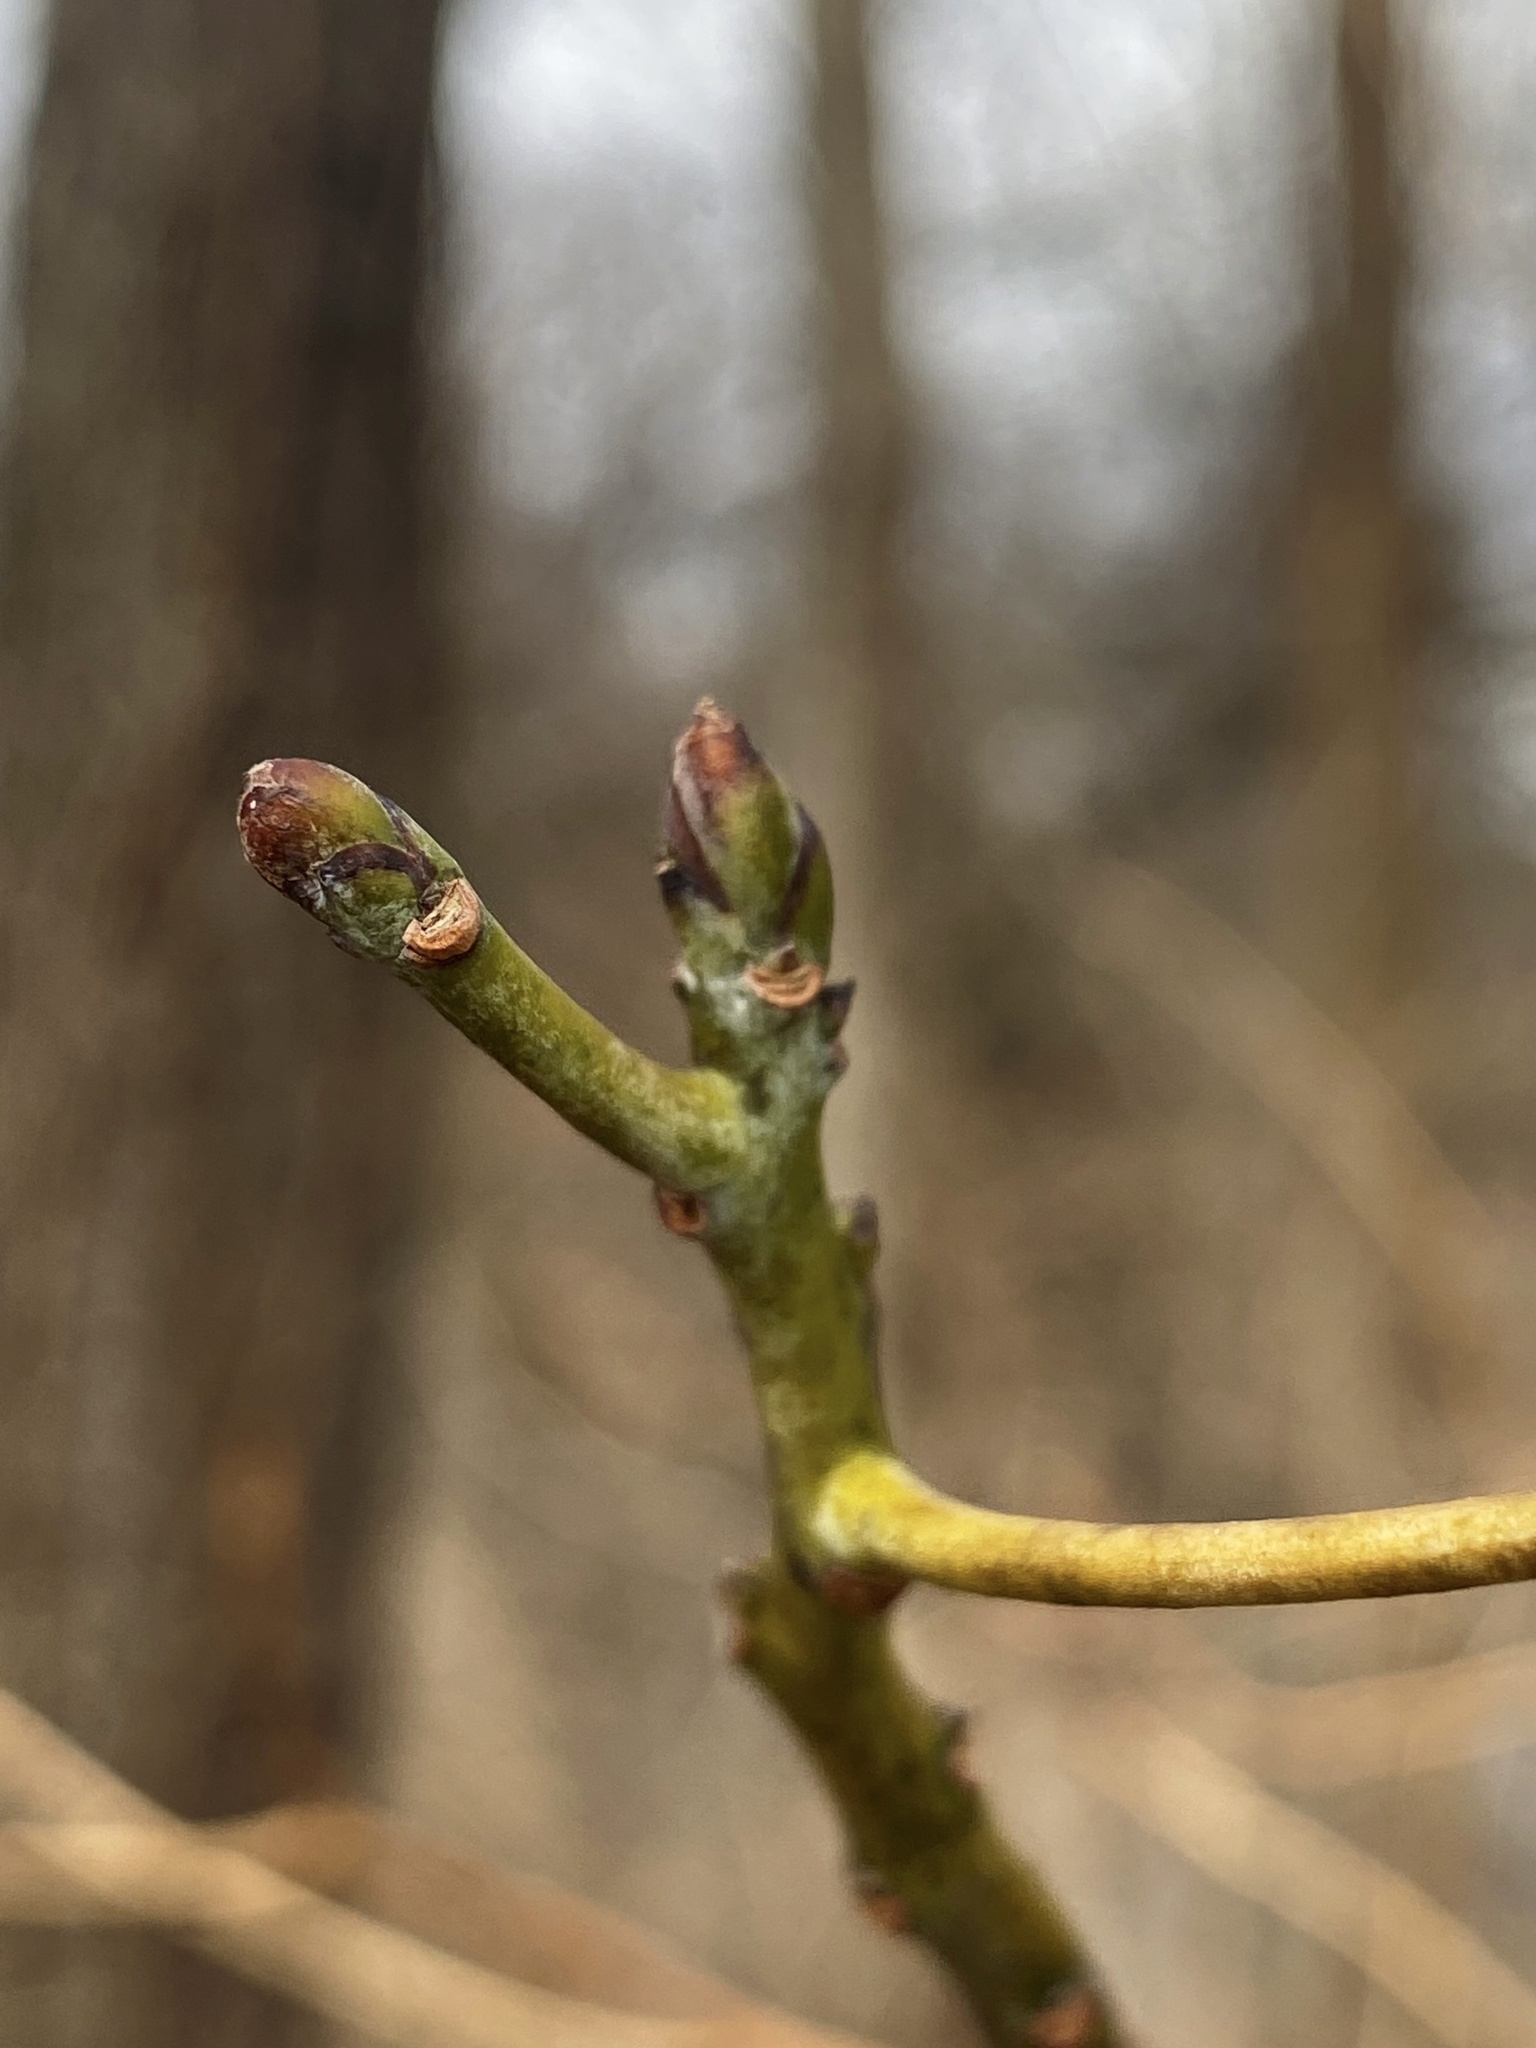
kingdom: Plantae
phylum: Tracheophyta
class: Magnoliopsida
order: Laurales
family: Lauraceae
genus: Sassafras
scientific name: Sassafras albidum
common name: Sassafras
